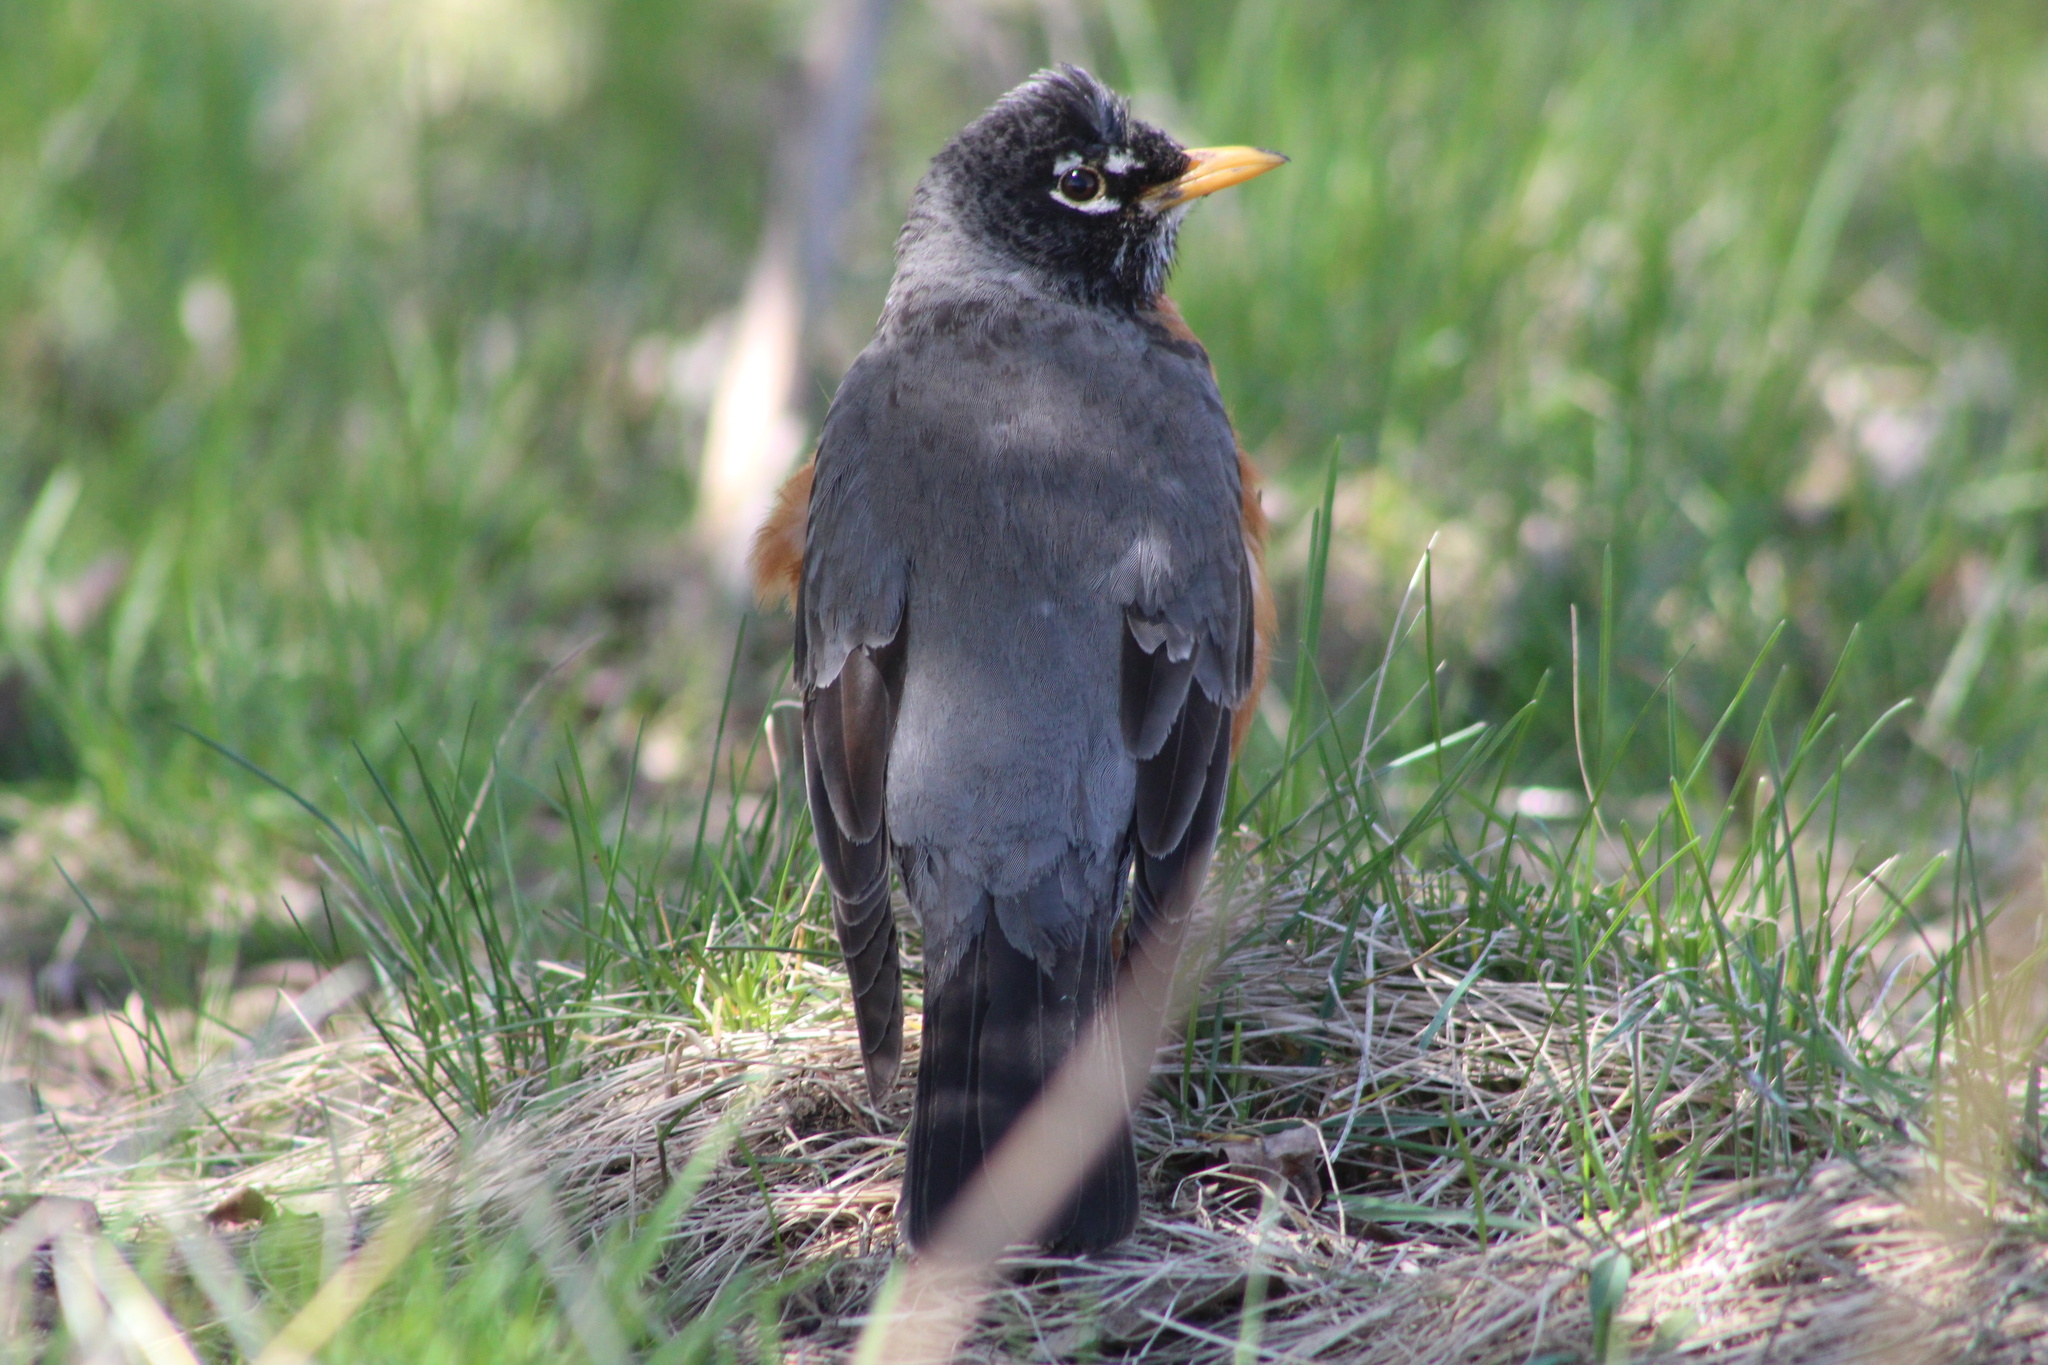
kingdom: Animalia
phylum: Chordata
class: Aves
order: Passeriformes
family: Turdidae
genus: Turdus
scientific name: Turdus migratorius
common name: American robin
